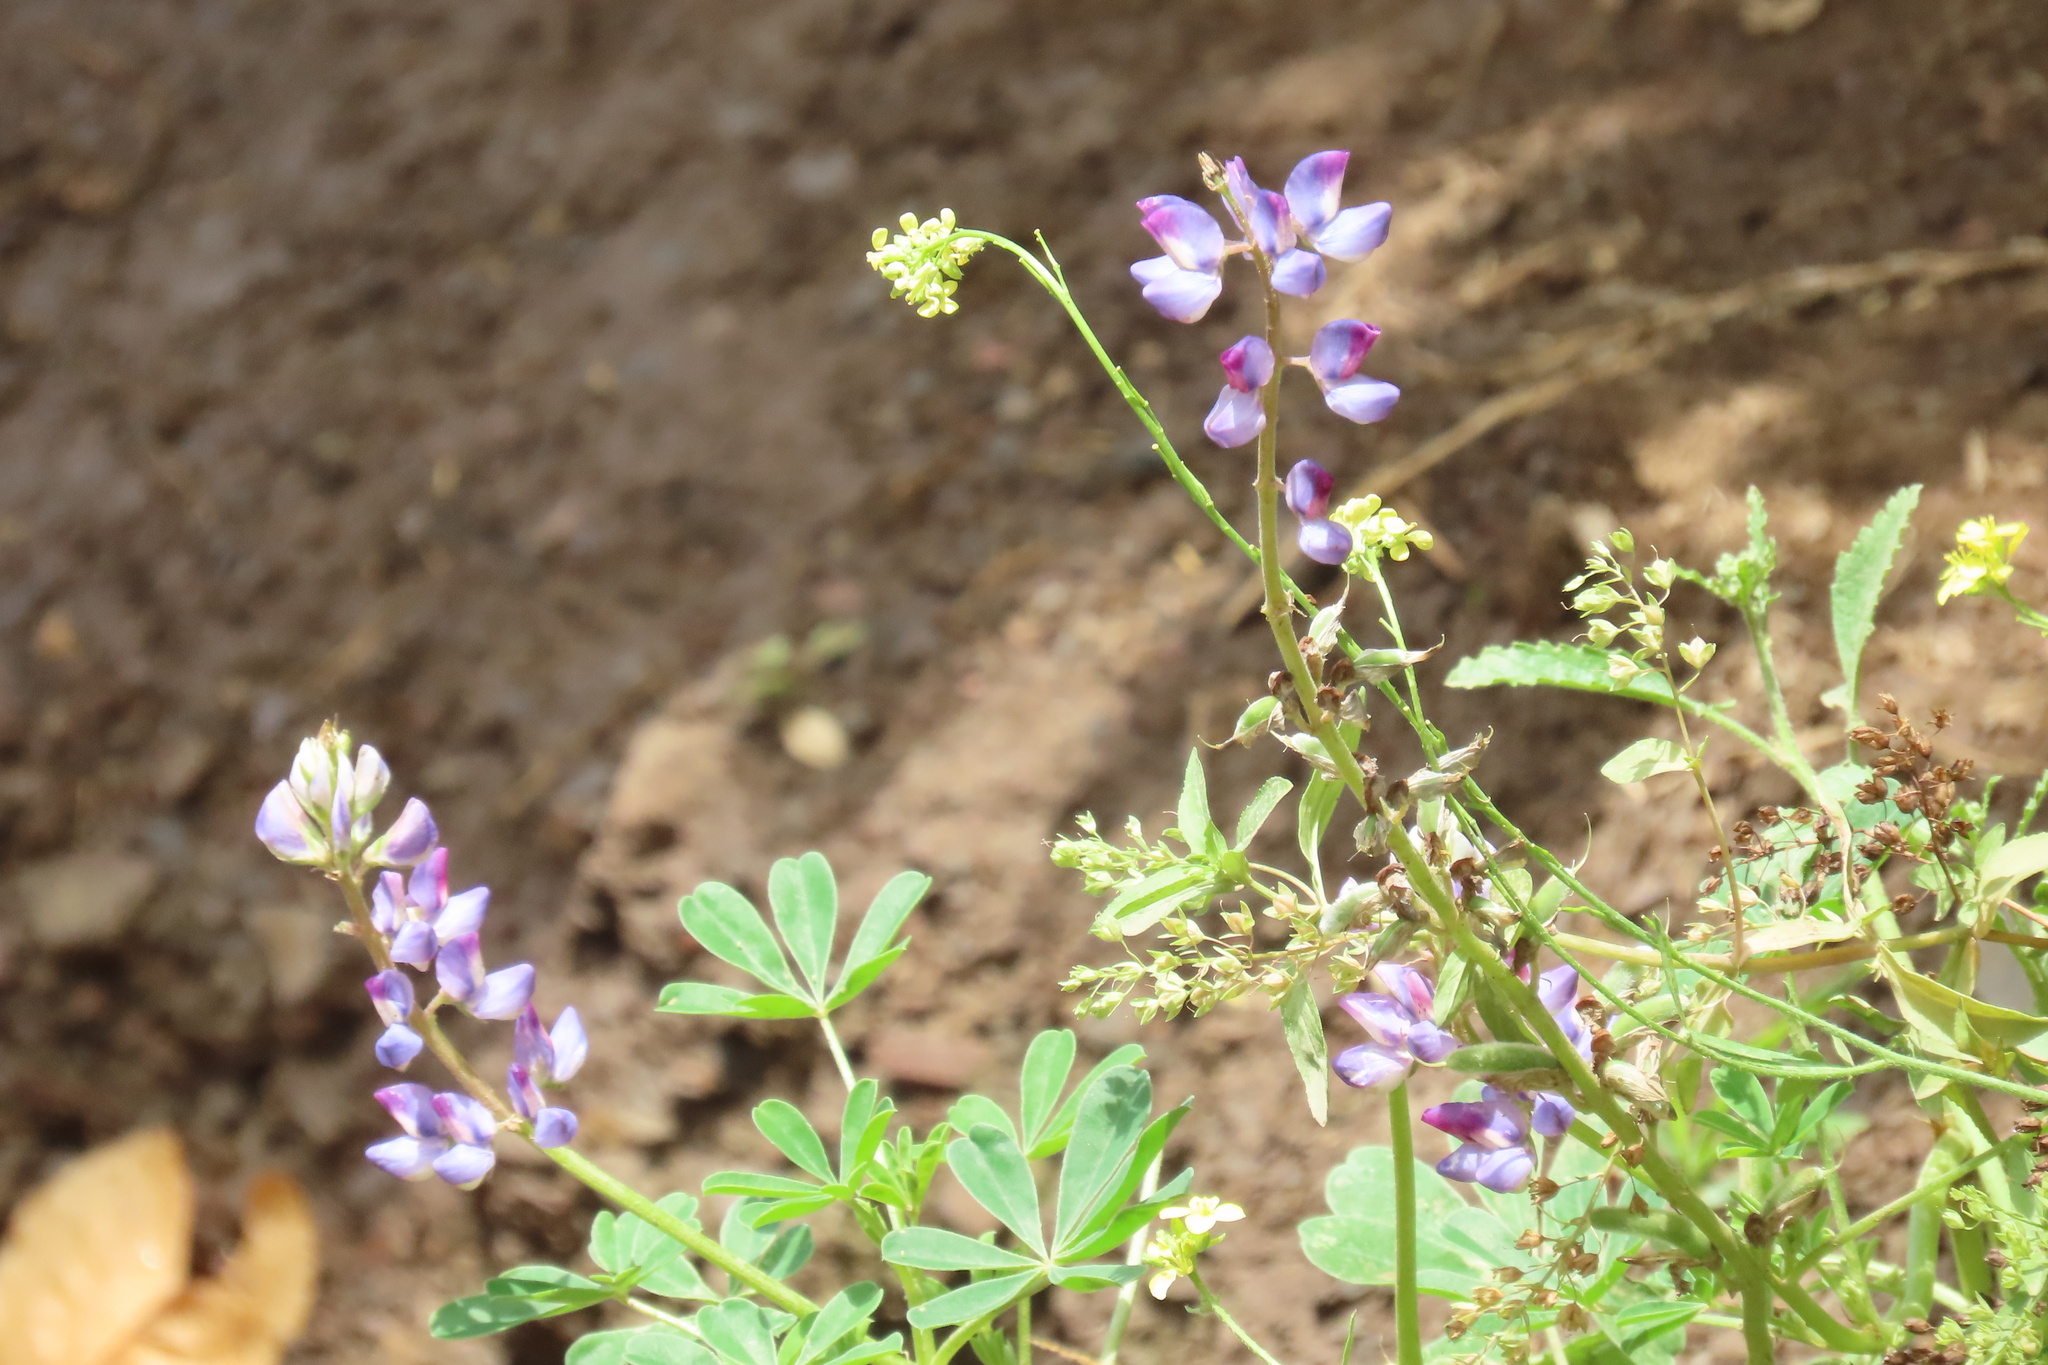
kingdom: Plantae
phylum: Tracheophyta
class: Magnoliopsida
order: Fabales
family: Fabaceae
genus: Lupinus
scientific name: Lupinus succulentus
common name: Arroyo lupine
